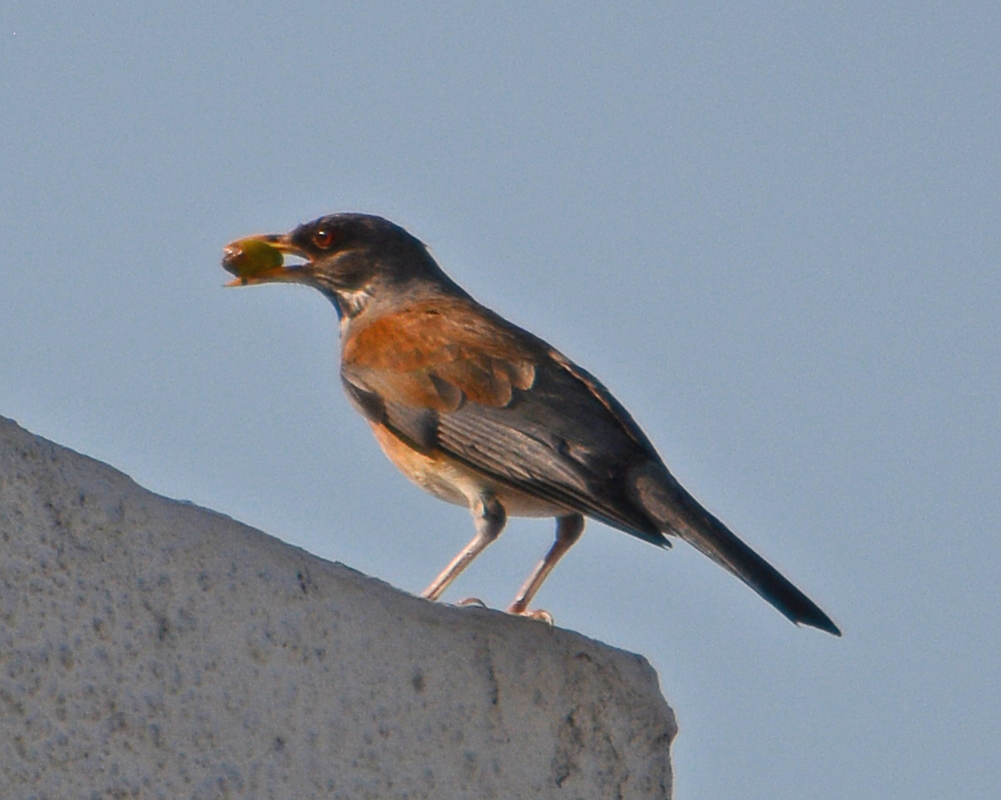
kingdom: Animalia
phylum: Chordata
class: Aves
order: Passeriformes
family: Turdidae
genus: Turdus
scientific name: Turdus rufopalliatus
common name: Rufous-backed robin
